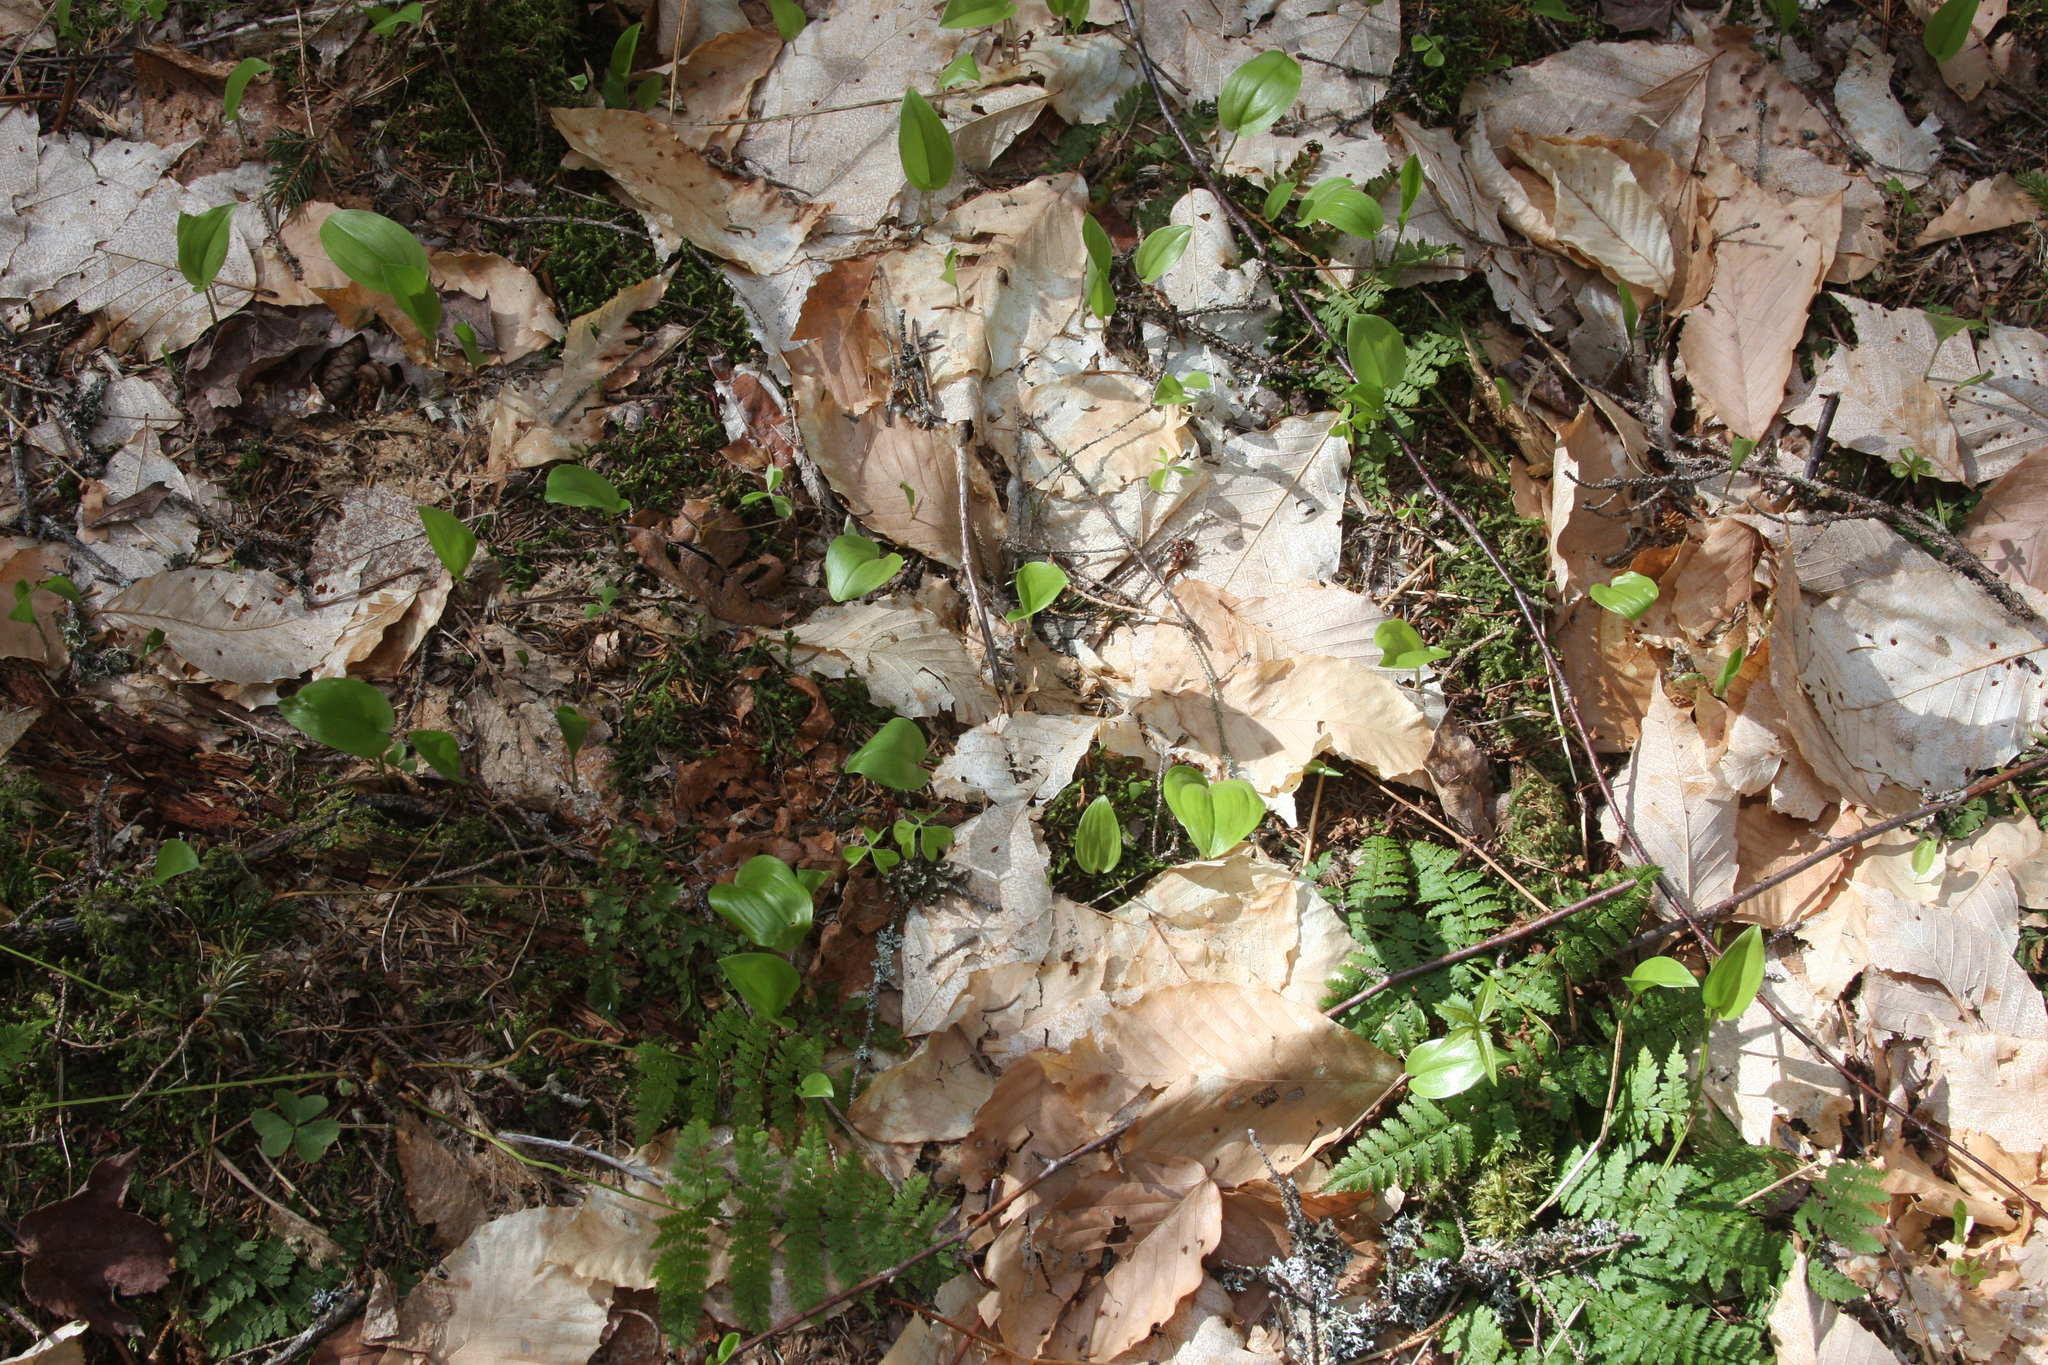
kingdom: Plantae
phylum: Tracheophyta
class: Liliopsida
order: Asparagales
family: Asparagaceae
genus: Maianthemum
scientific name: Maianthemum canadense
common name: False lily-of-the-valley
